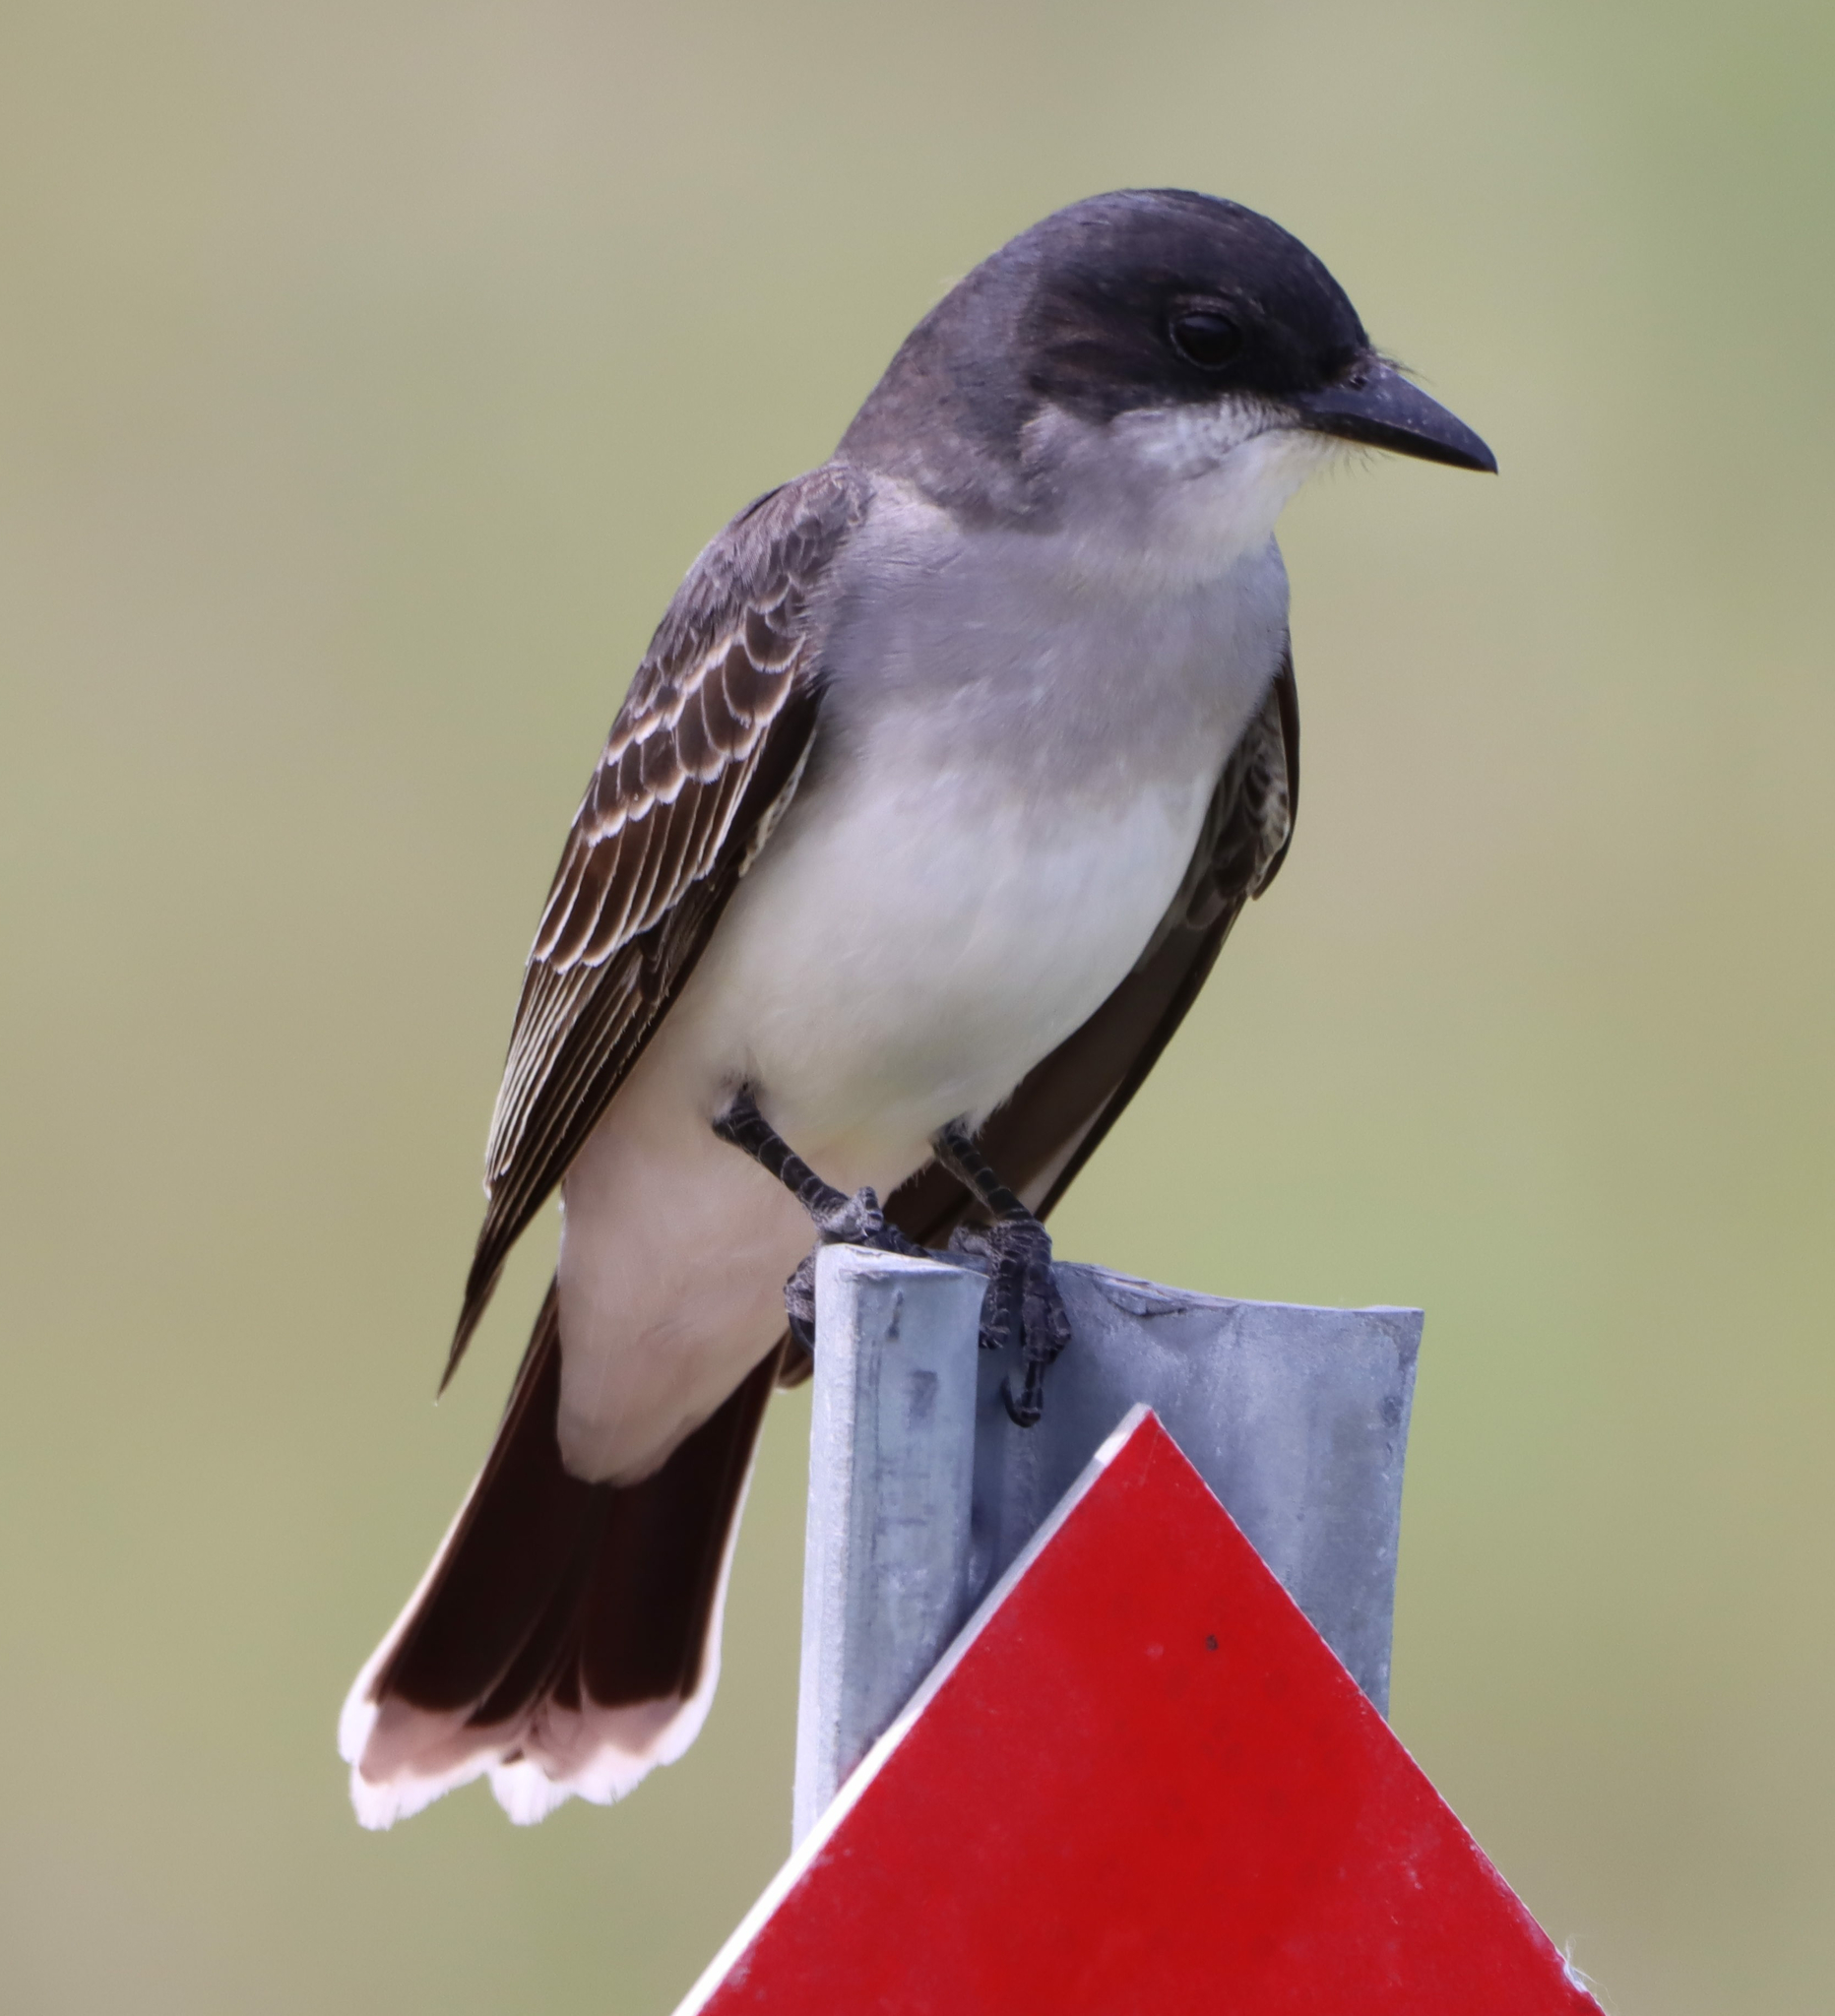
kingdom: Animalia
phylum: Chordata
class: Aves
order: Passeriformes
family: Tyrannidae
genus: Tyrannus
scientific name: Tyrannus tyrannus
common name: Eastern kingbird
